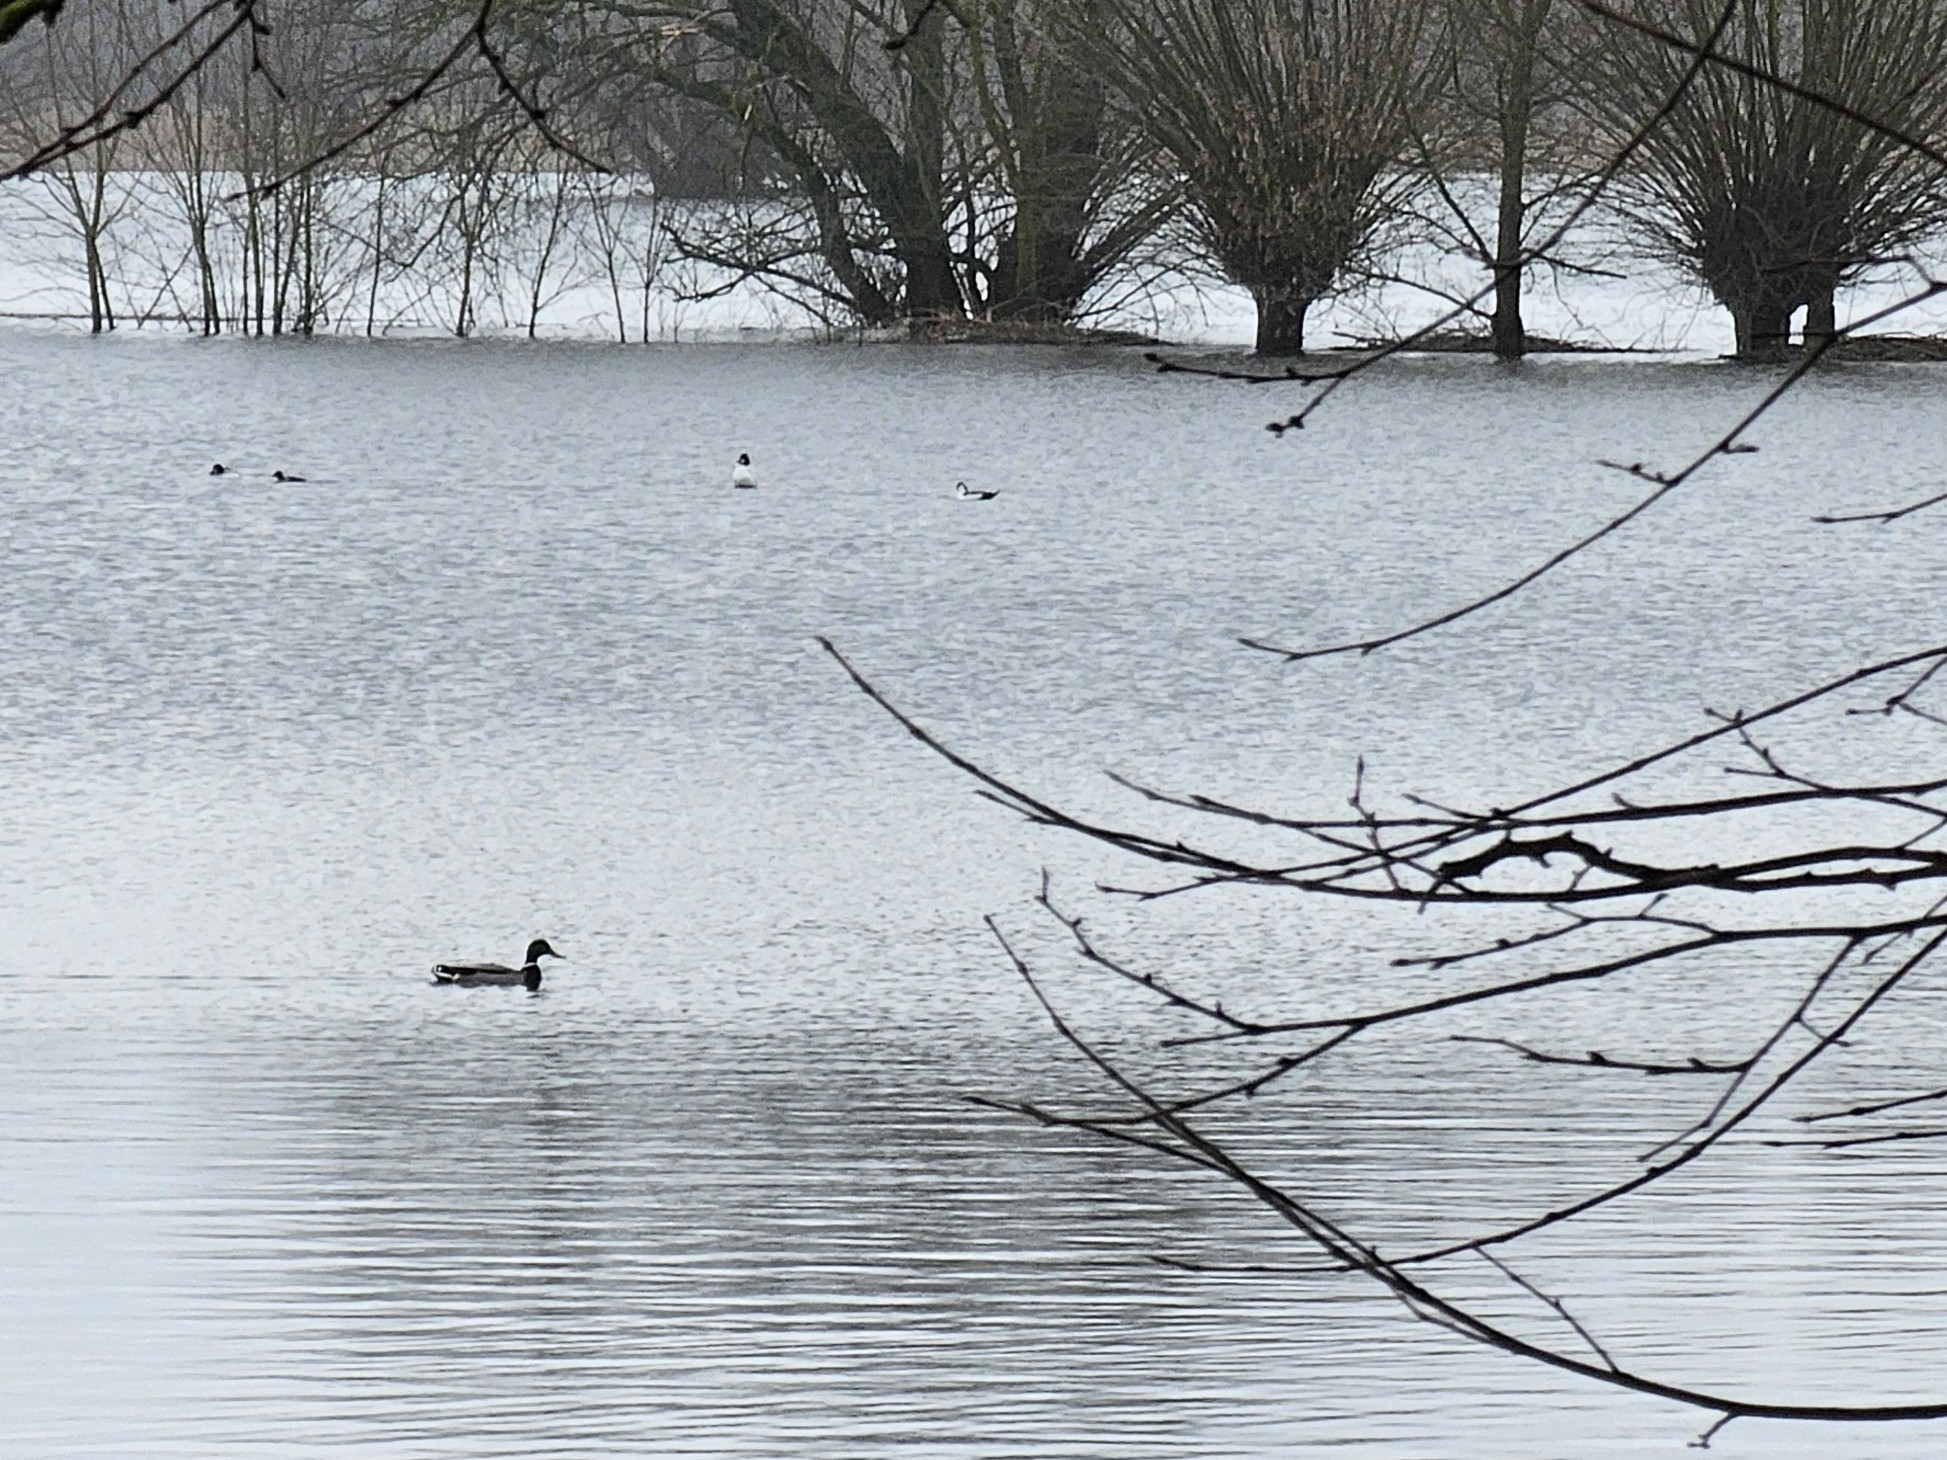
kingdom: Animalia
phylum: Chordata
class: Aves
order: Anseriformes
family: Anatidae
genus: Anas
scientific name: Anas platyrhynchos
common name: Mallard
